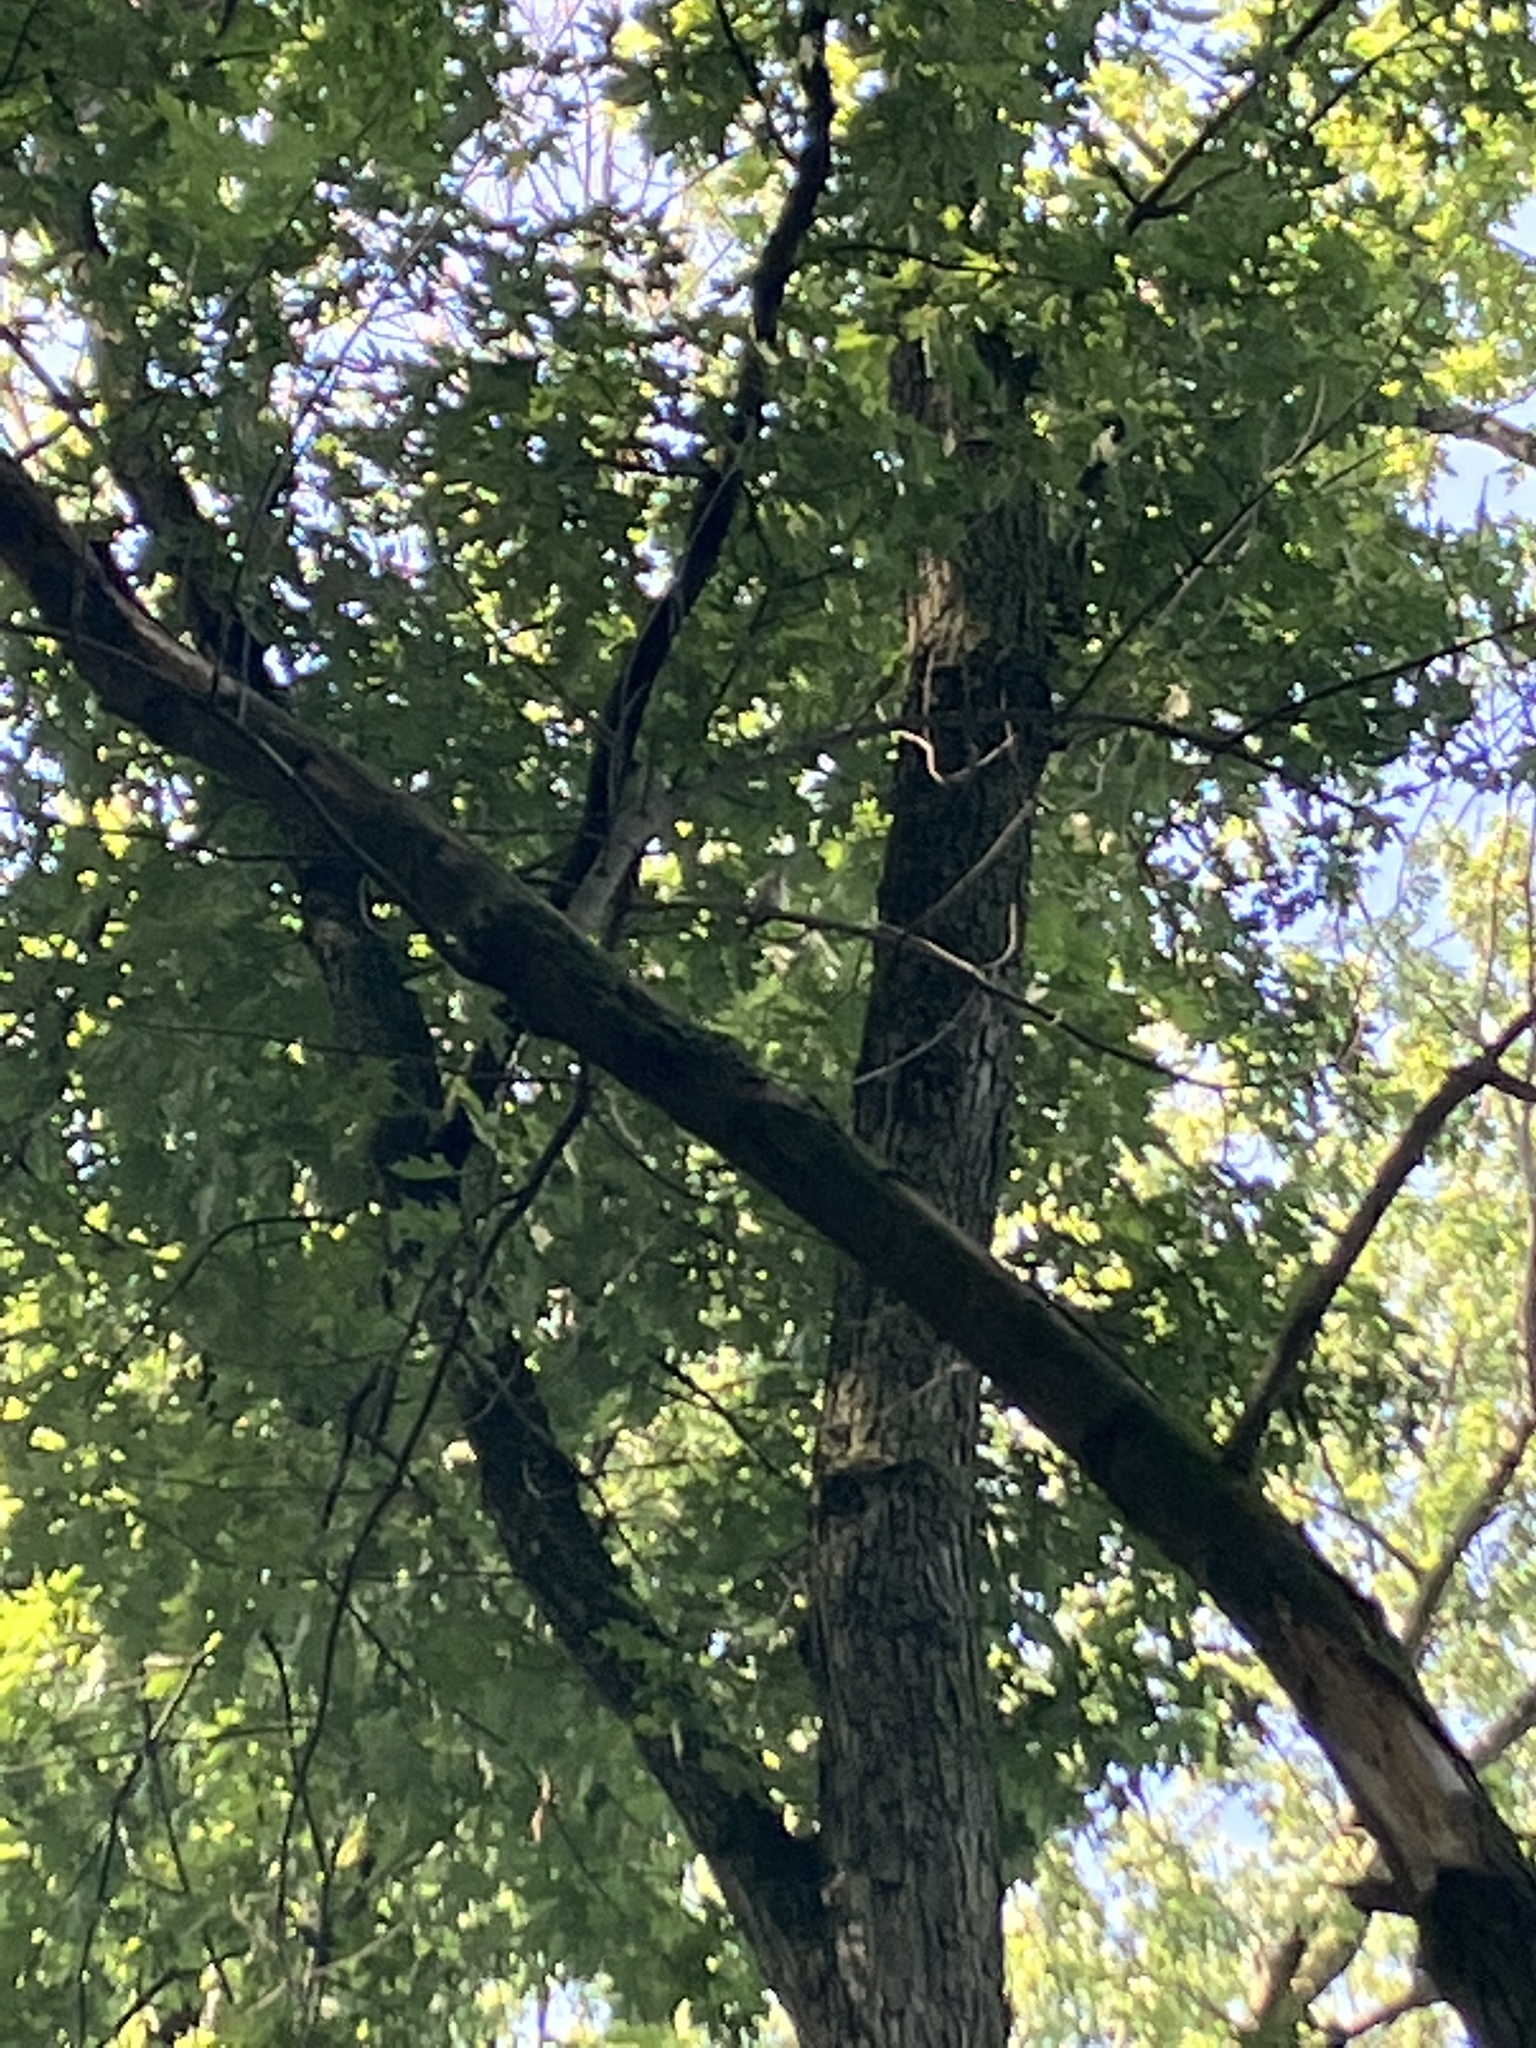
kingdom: Animalia
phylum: Chordata
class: Aves
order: Passeriformes
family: Troglodytidae
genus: Troglodytes
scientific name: Troglodytes aedon
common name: House wren
